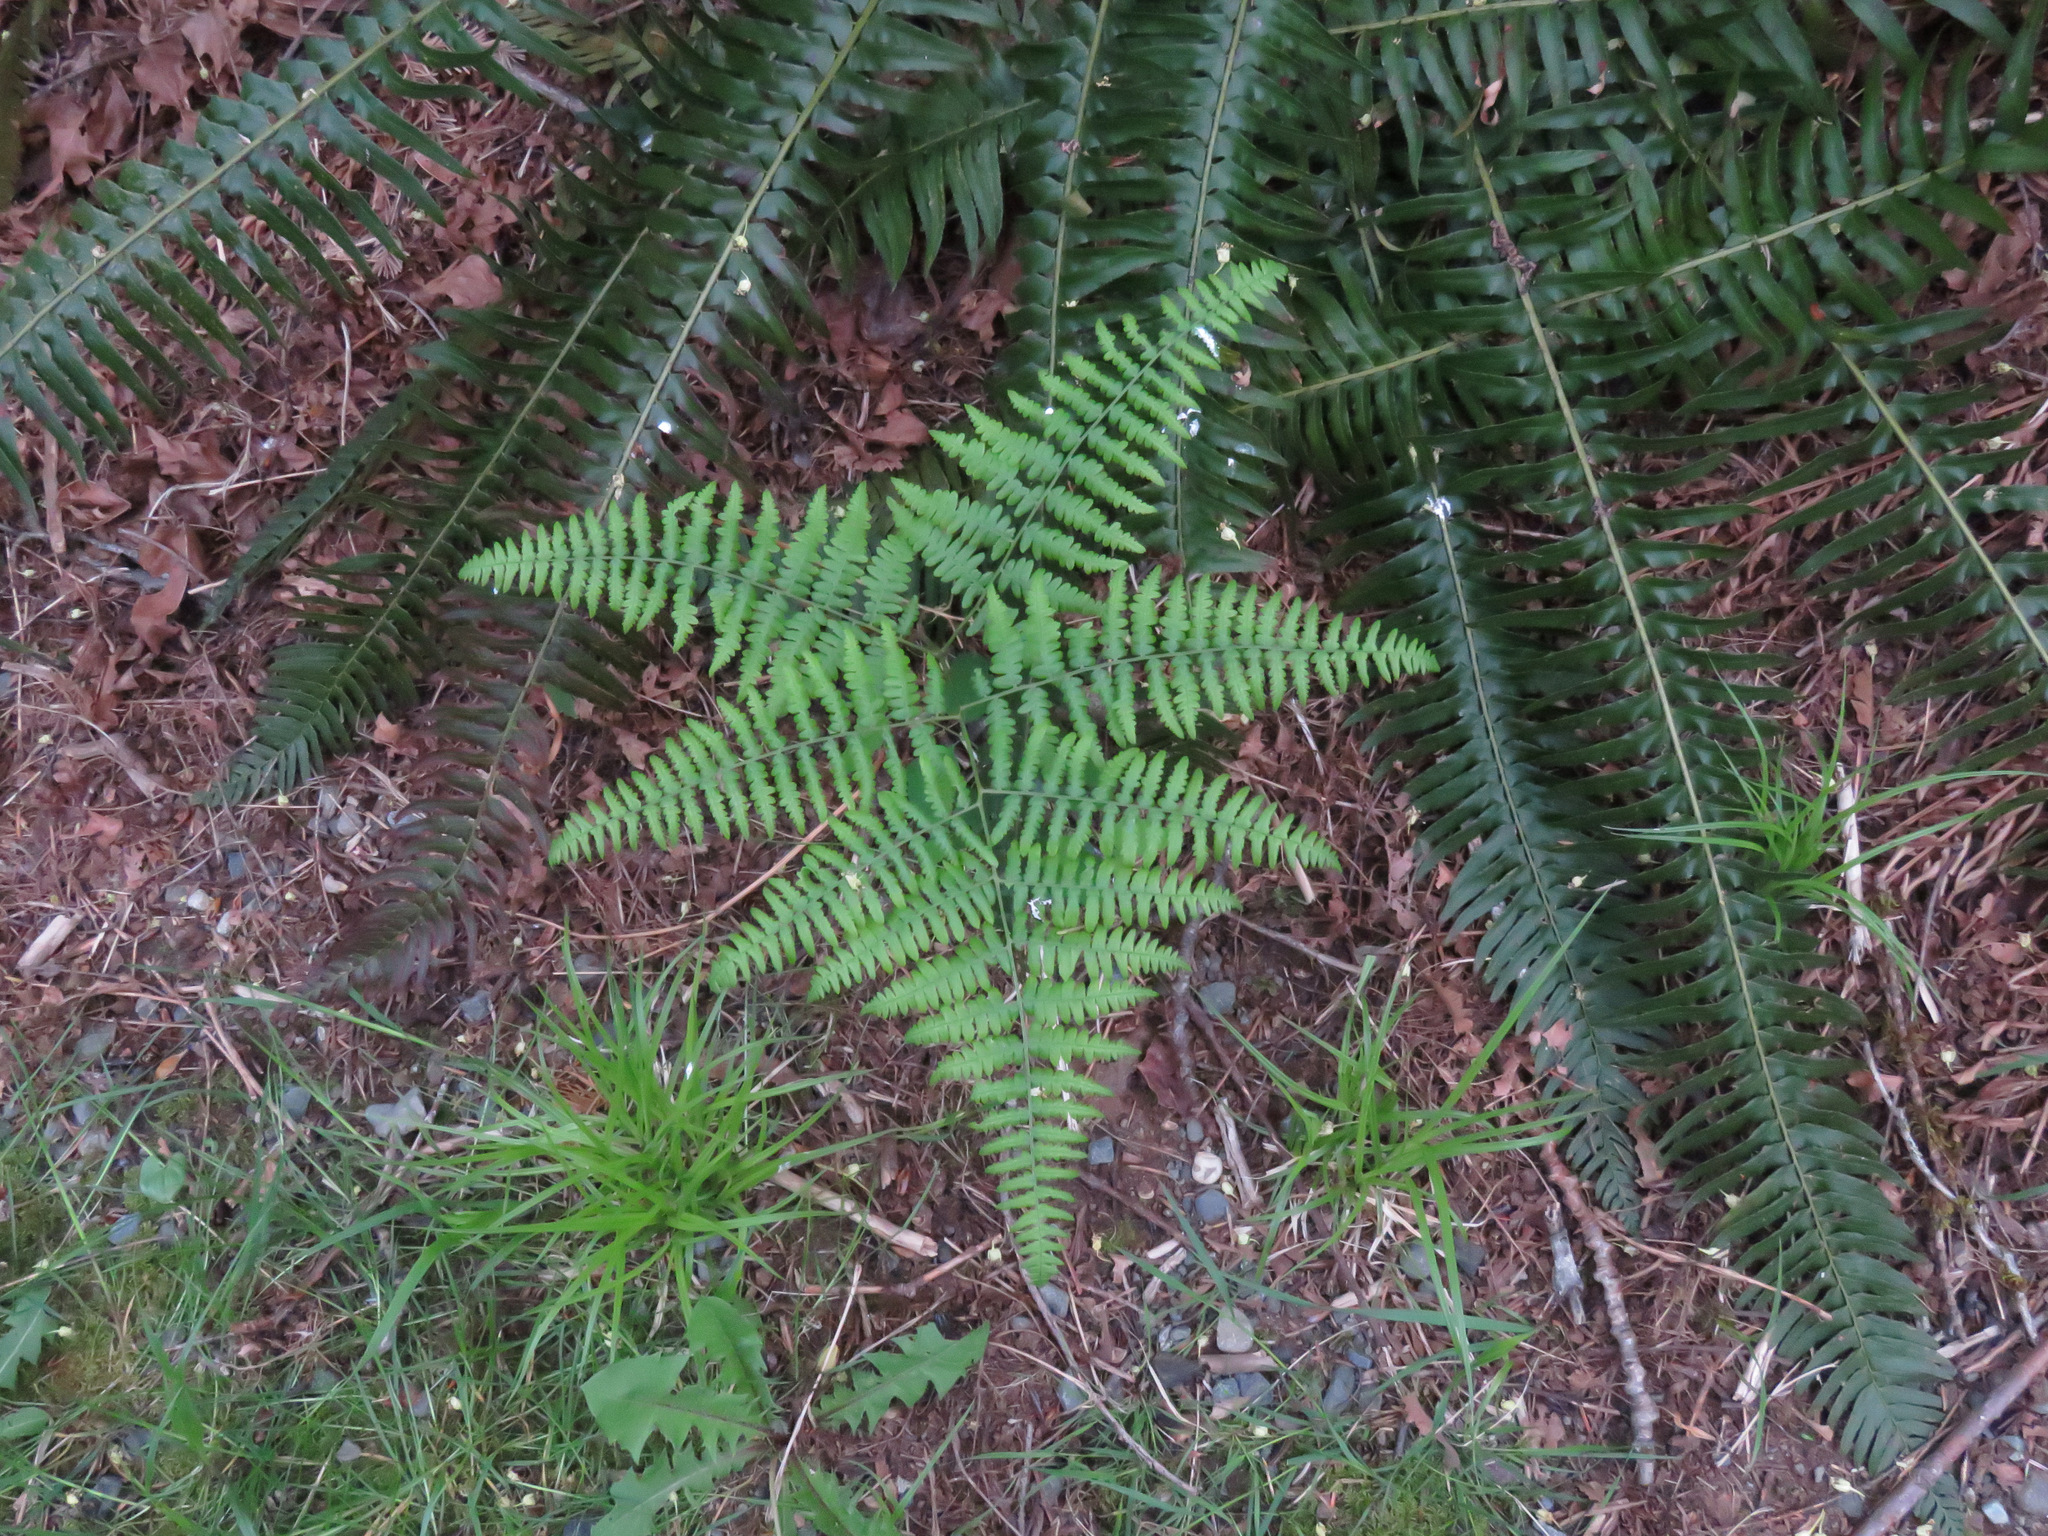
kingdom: Plantae
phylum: Tracheophyta
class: Polypodiopsida
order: Polypodiales
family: Dennstaedtiaceae
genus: Pteridium
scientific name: Pteridium aquilinum
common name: Bracken
